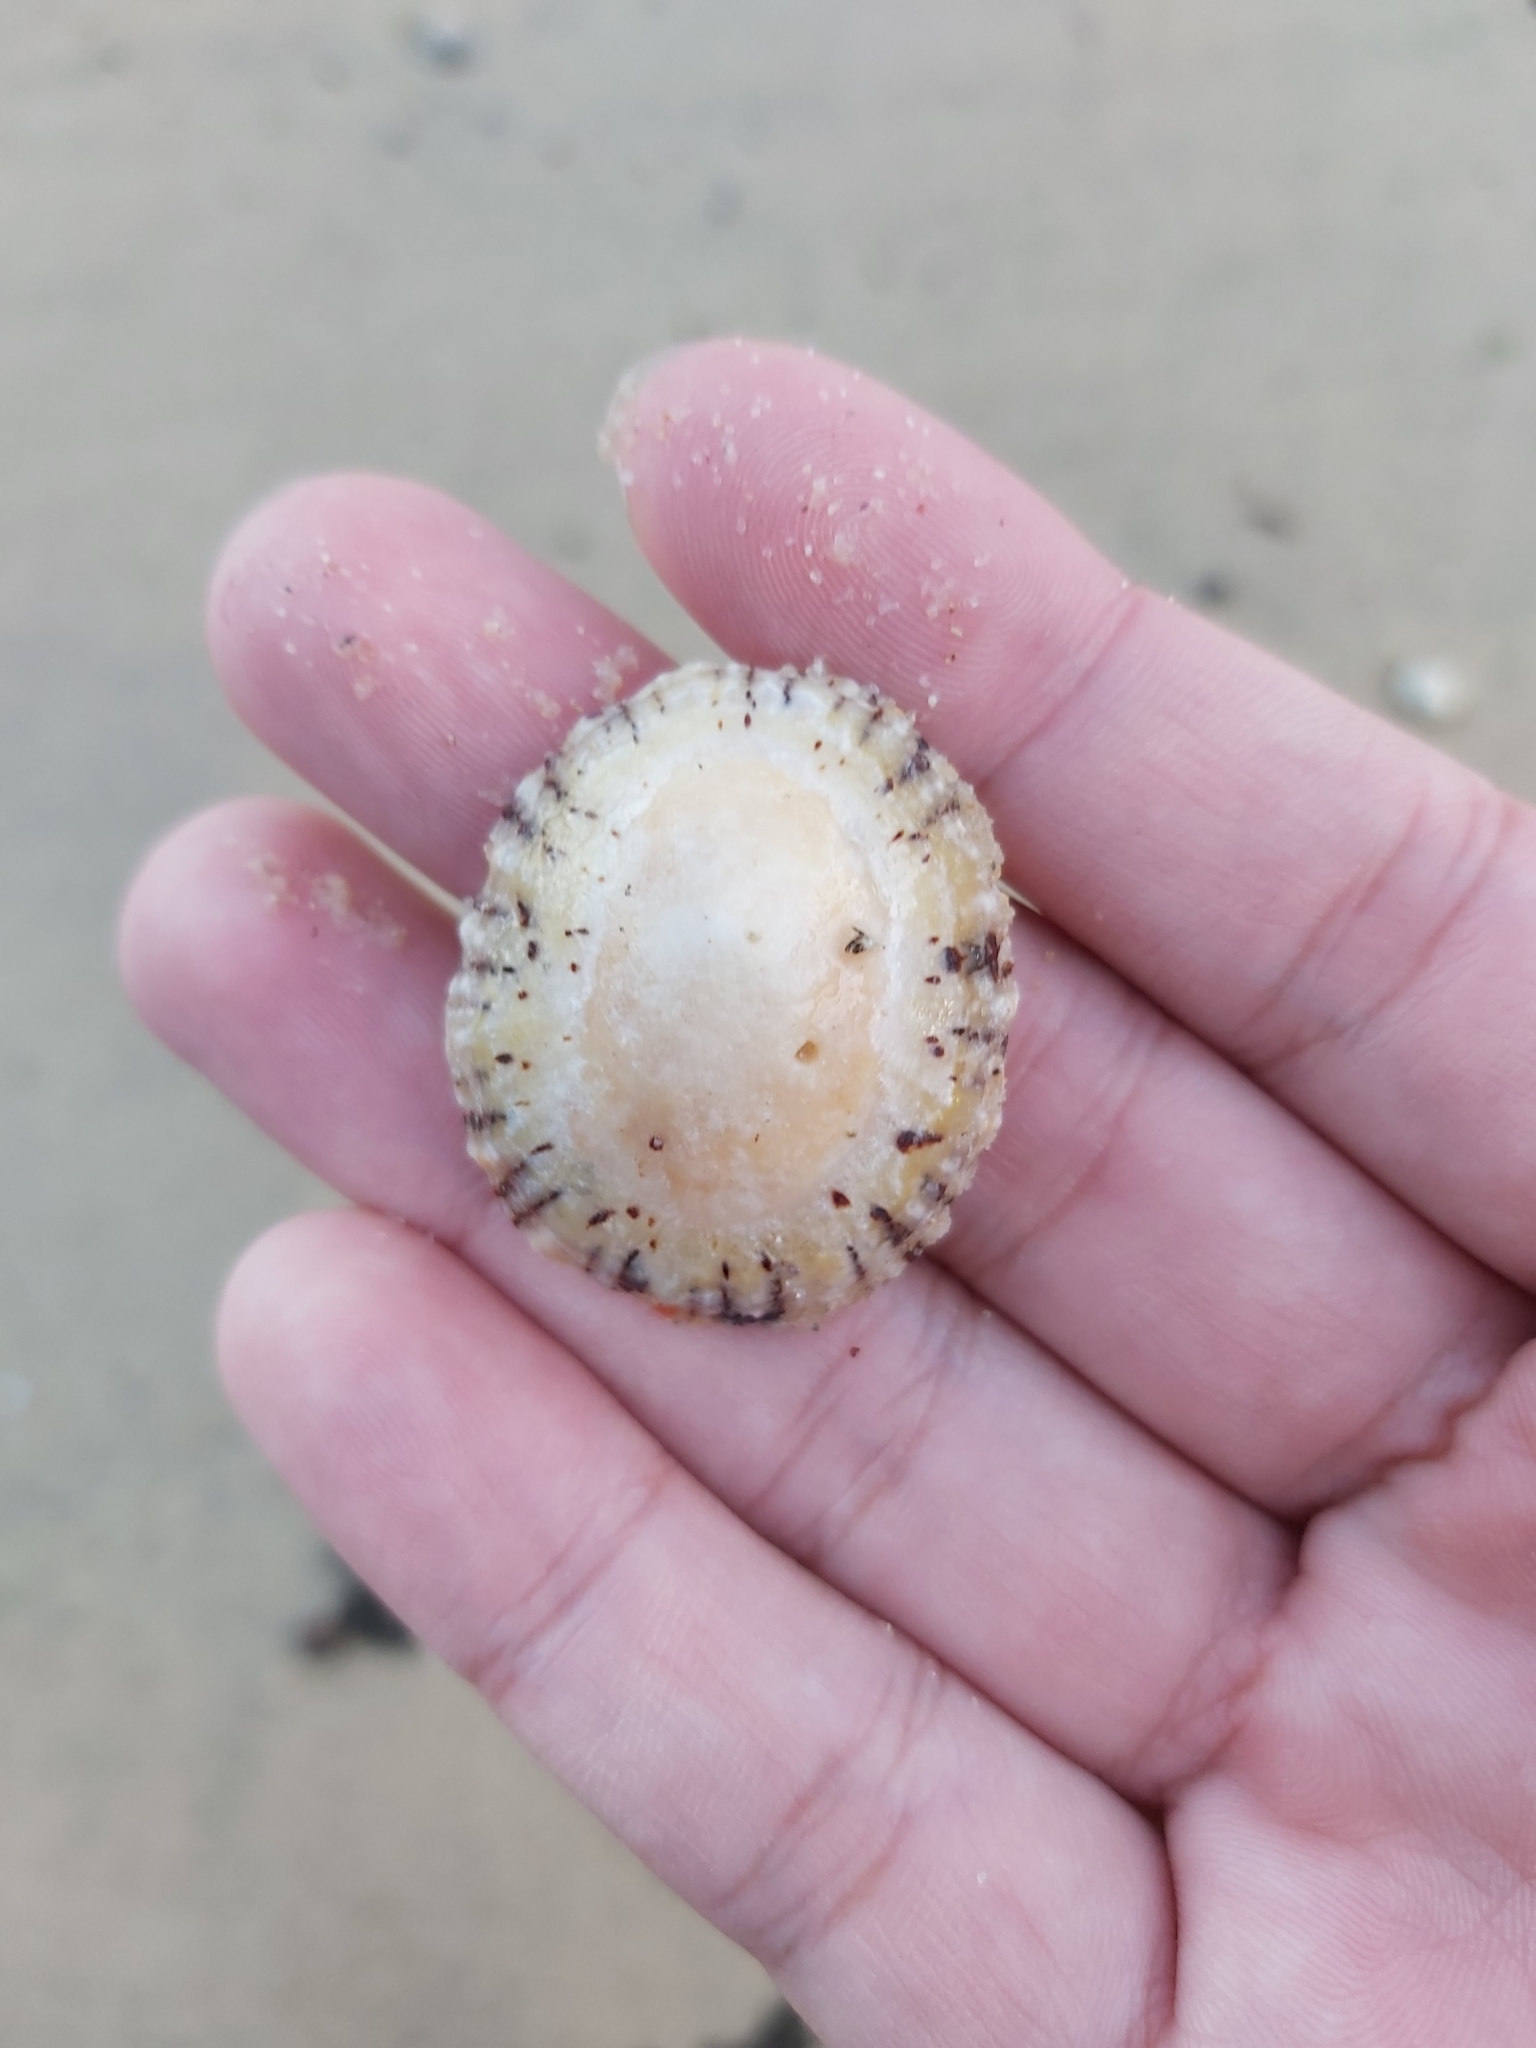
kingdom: Animalia
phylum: Mollusca
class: Gastropoda
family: Nacellidae
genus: Cellana
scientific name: Cellana tramoserica
